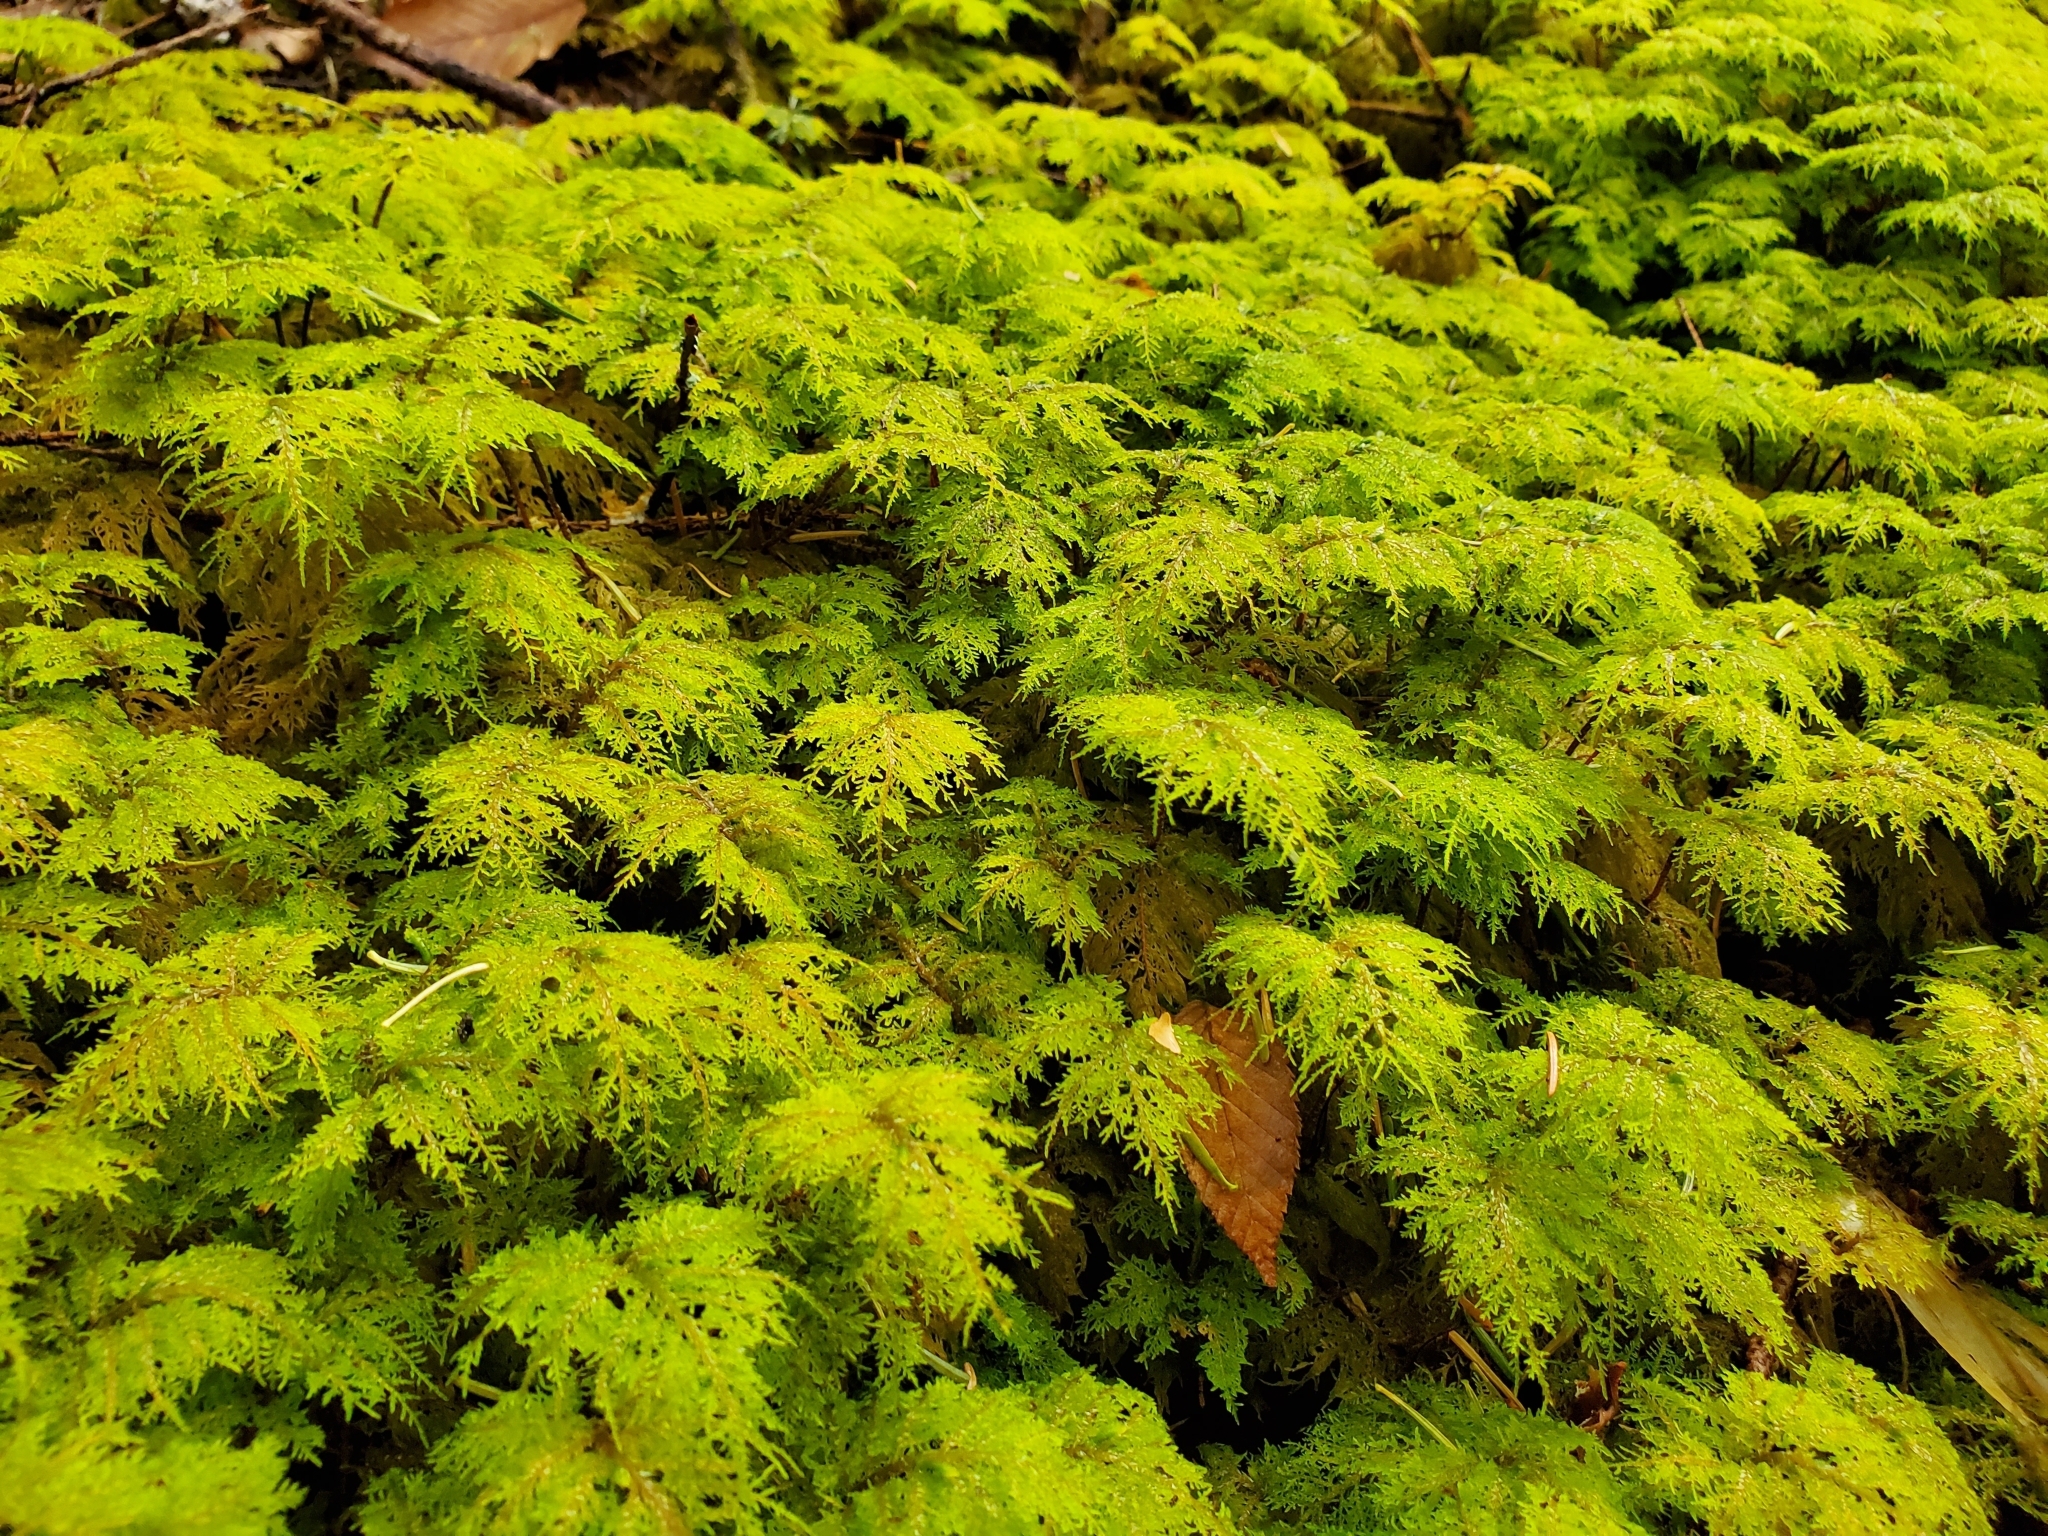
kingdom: Plantae
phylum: Bryophyta
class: Bryopsida
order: Hypnales
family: Hylocomiaceae
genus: Hylocomium
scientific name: Hylocomium splendens
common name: Stairstep moss
